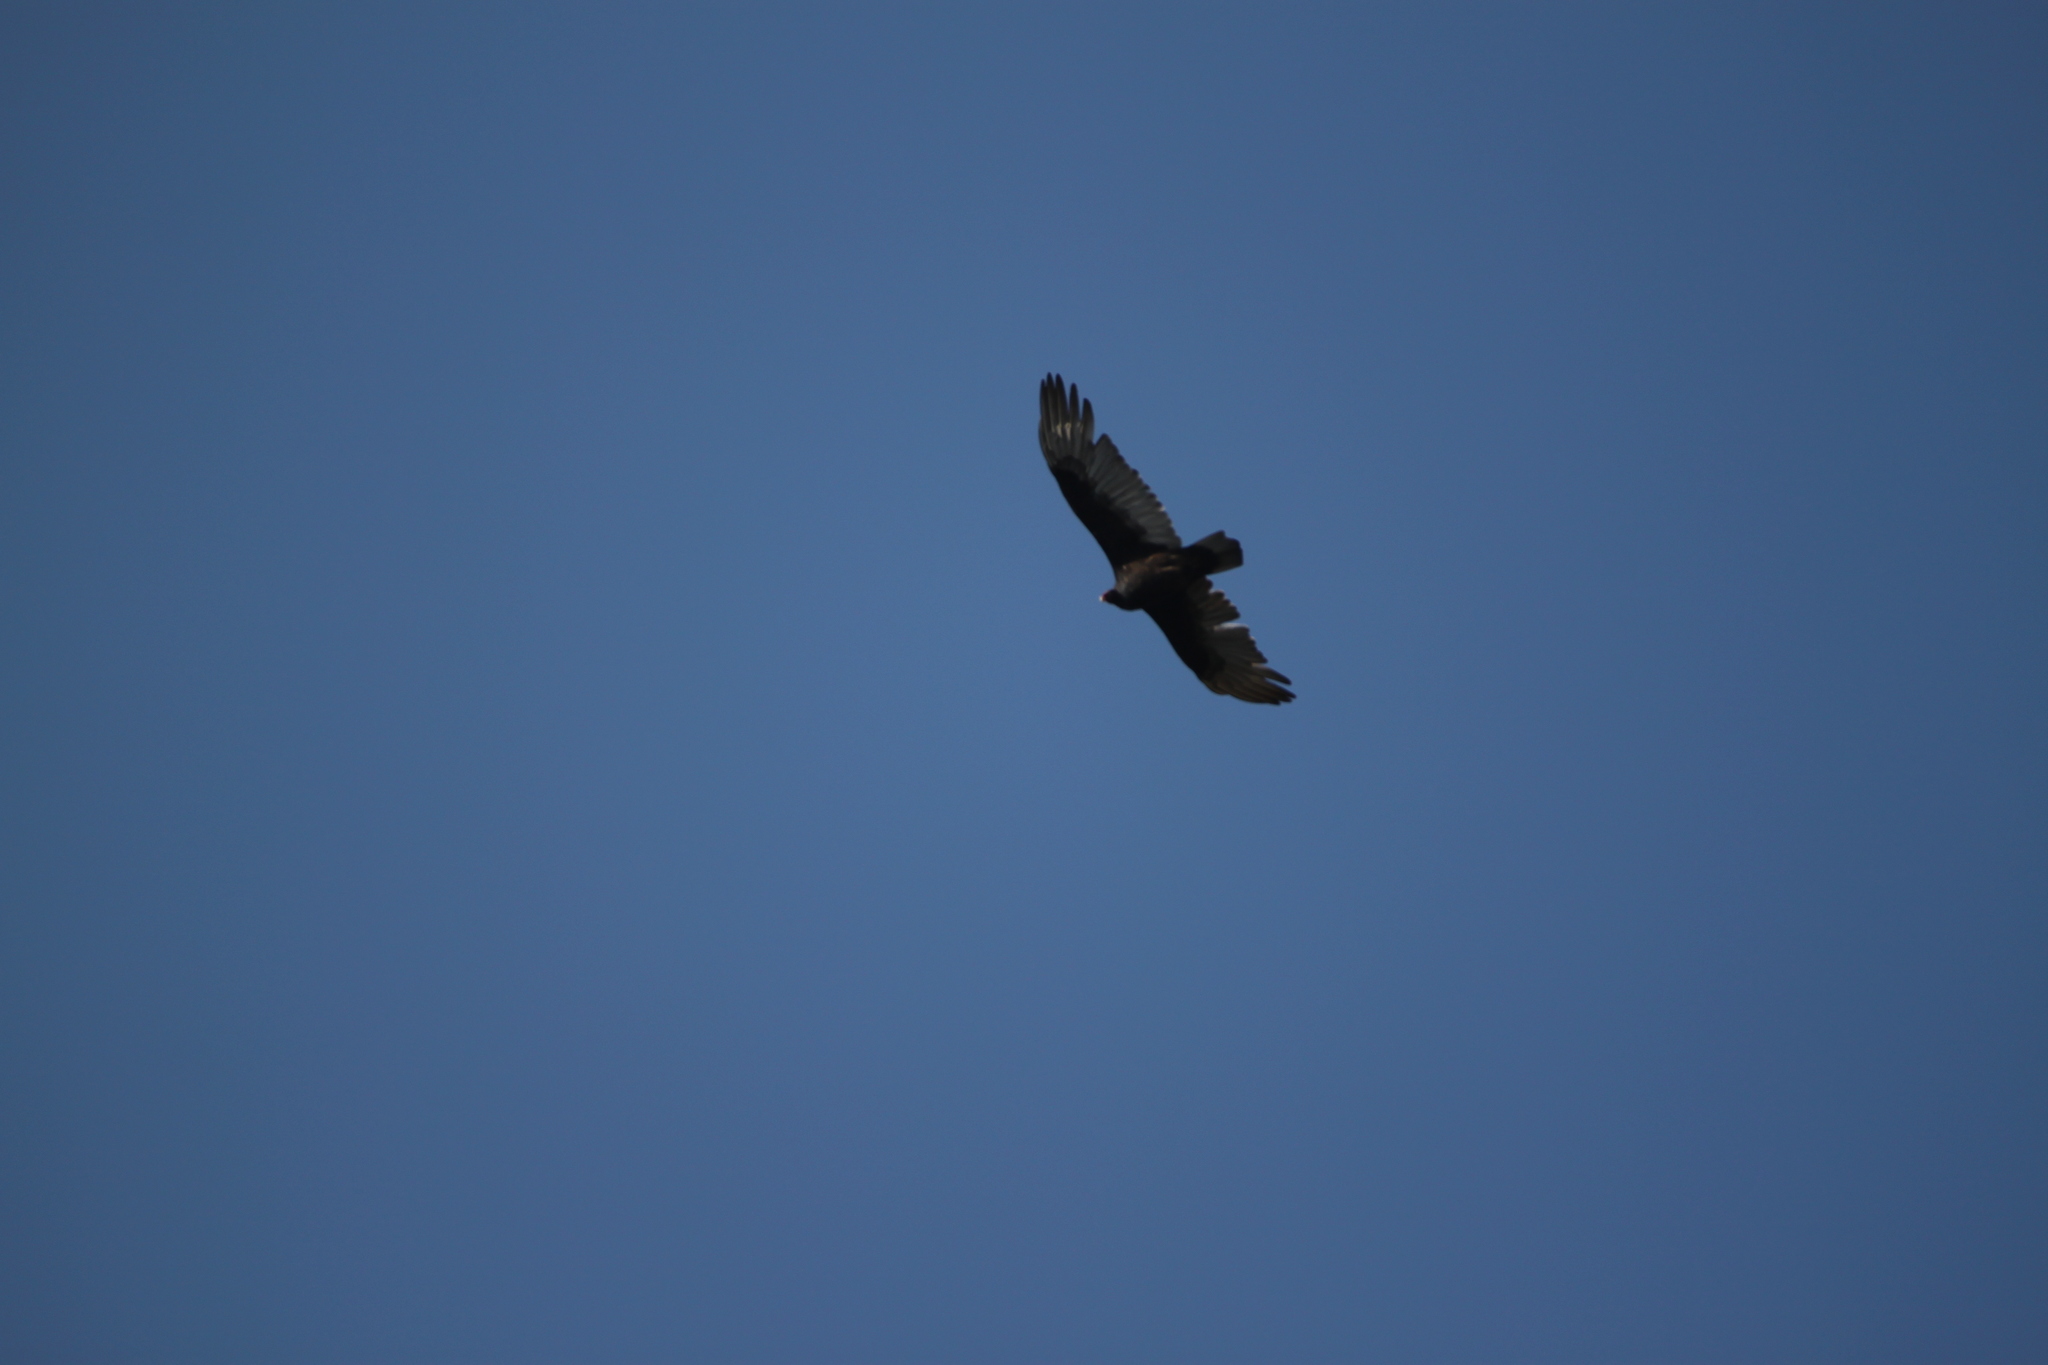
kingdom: Animalia
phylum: Chordata
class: Aves
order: Accipitriformes
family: Cathartidae
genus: Cathartes
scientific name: Cathartes aura
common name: Turkey vulture
